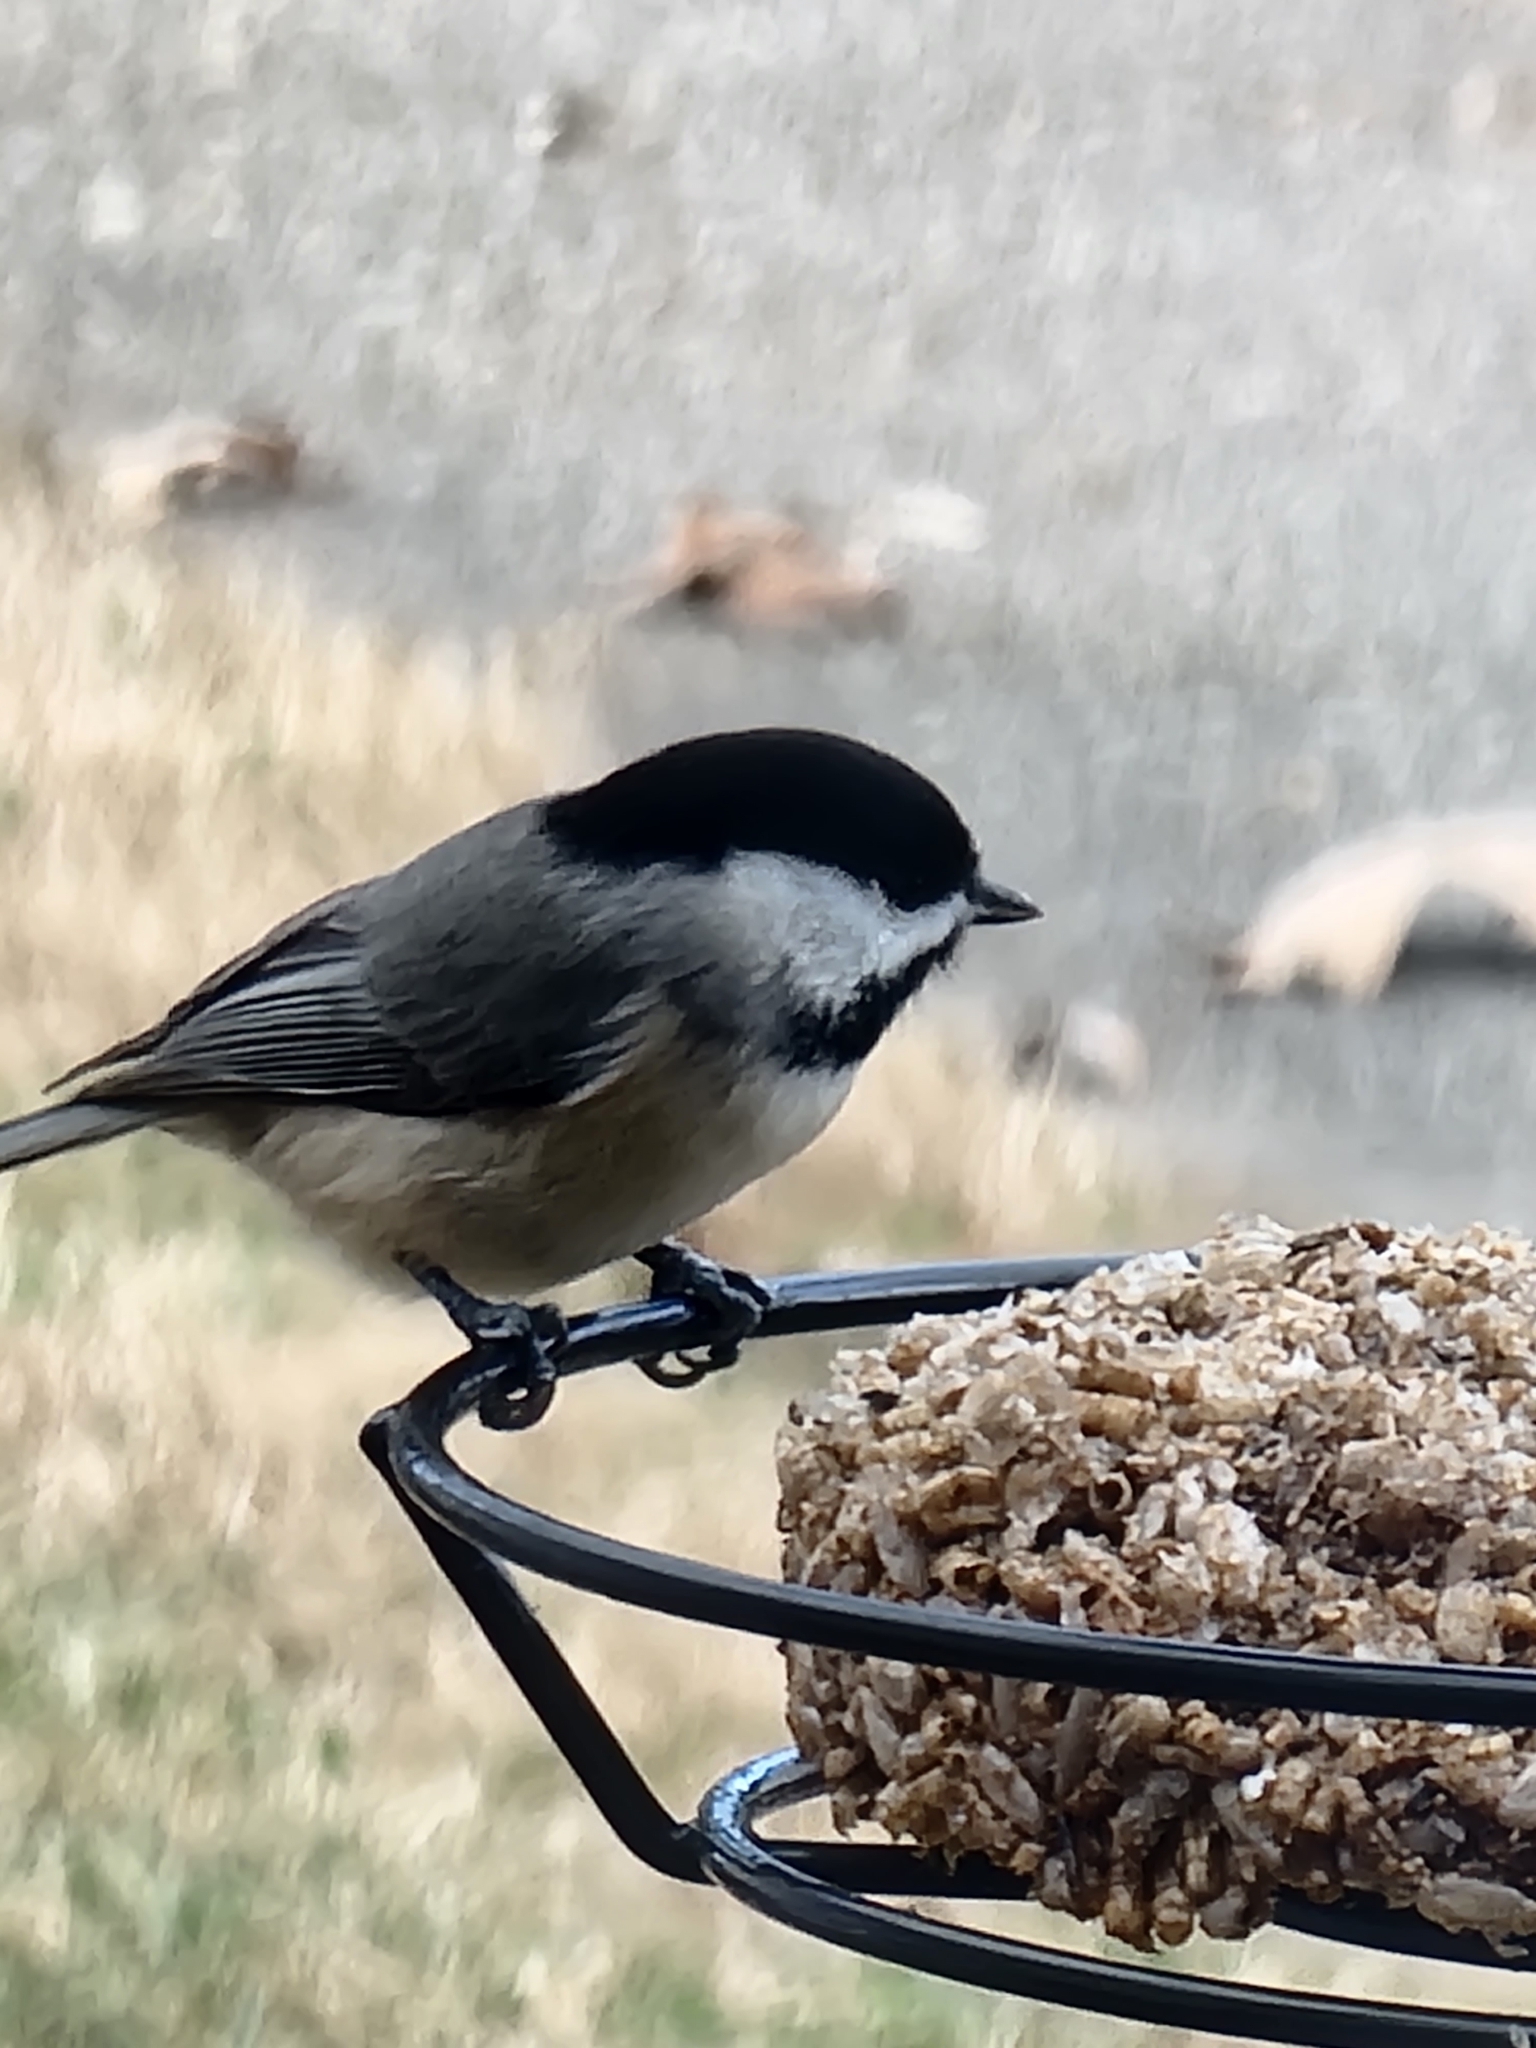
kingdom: Animalia
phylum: Chordata
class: Aves
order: Passeriformes
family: Paridae
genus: Poecile
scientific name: Poecile carolinensis
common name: Carolina chickadee
